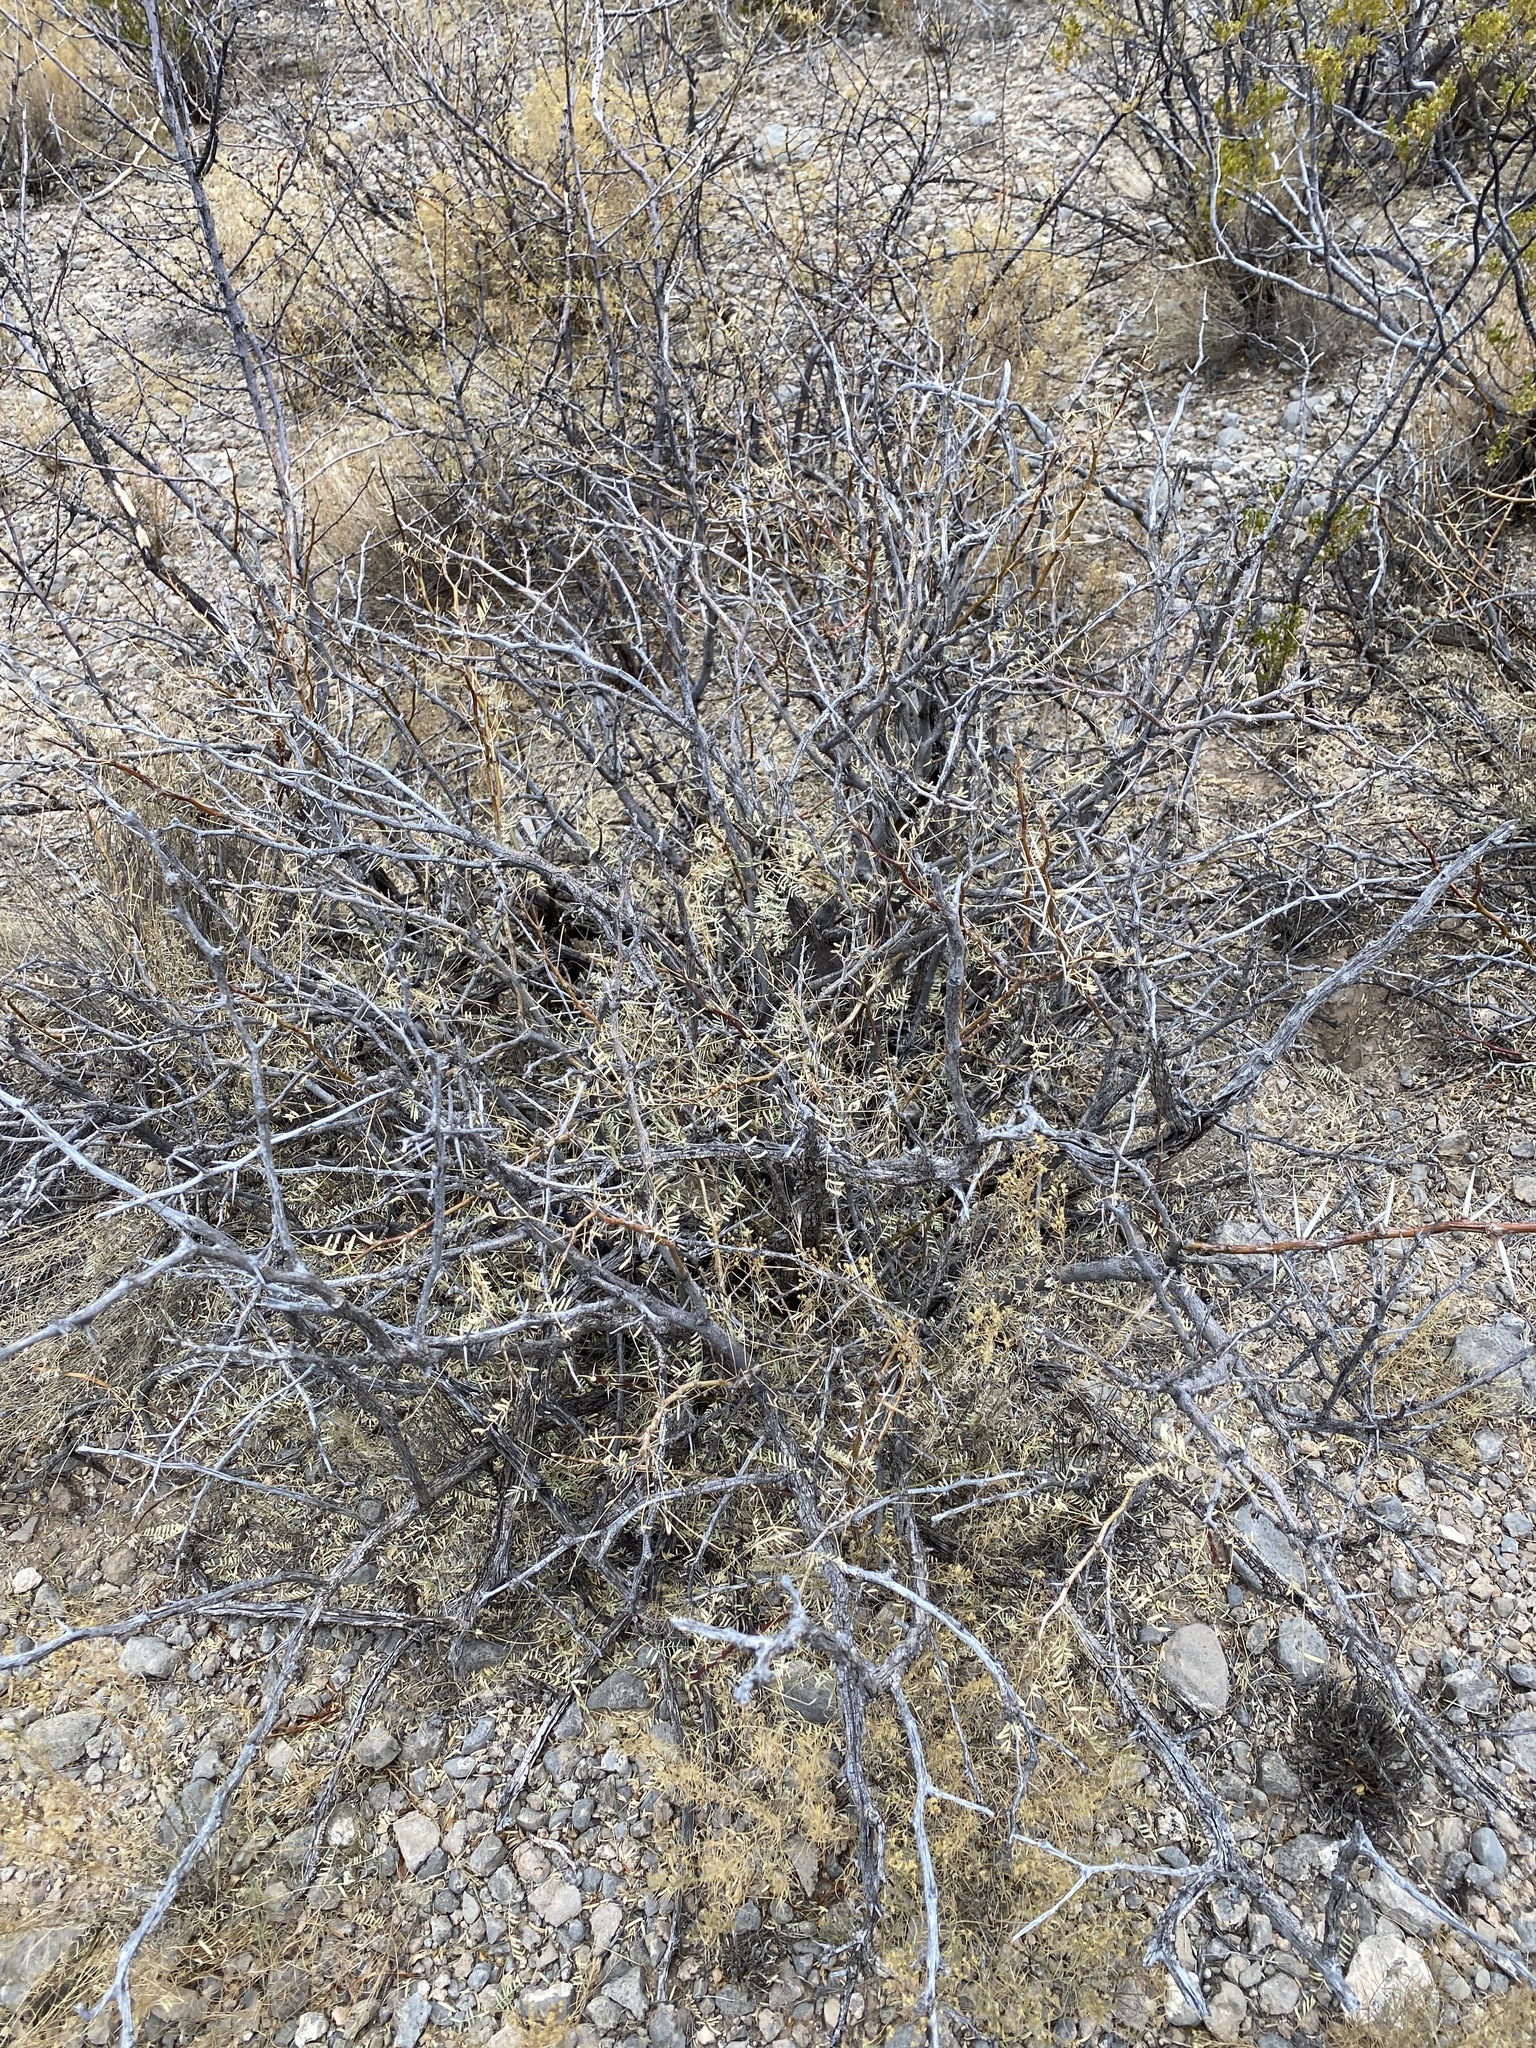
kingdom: Plantae
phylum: Tracheophyta
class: Magnoliopsida
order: Fabales
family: Fabaceae
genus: Prosopis
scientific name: Prosopis glandulosa
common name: Honey mesquite
